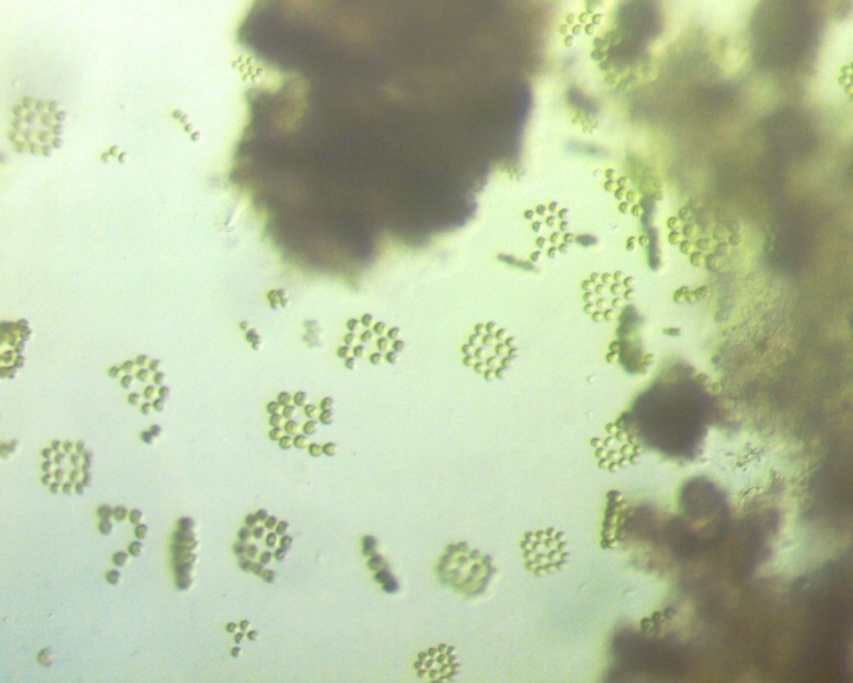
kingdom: Plantae
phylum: Chlorophyta
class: Chlorophyceae
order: Volvocales
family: Goniaceae
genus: Gonium
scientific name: Gonium pectorale
